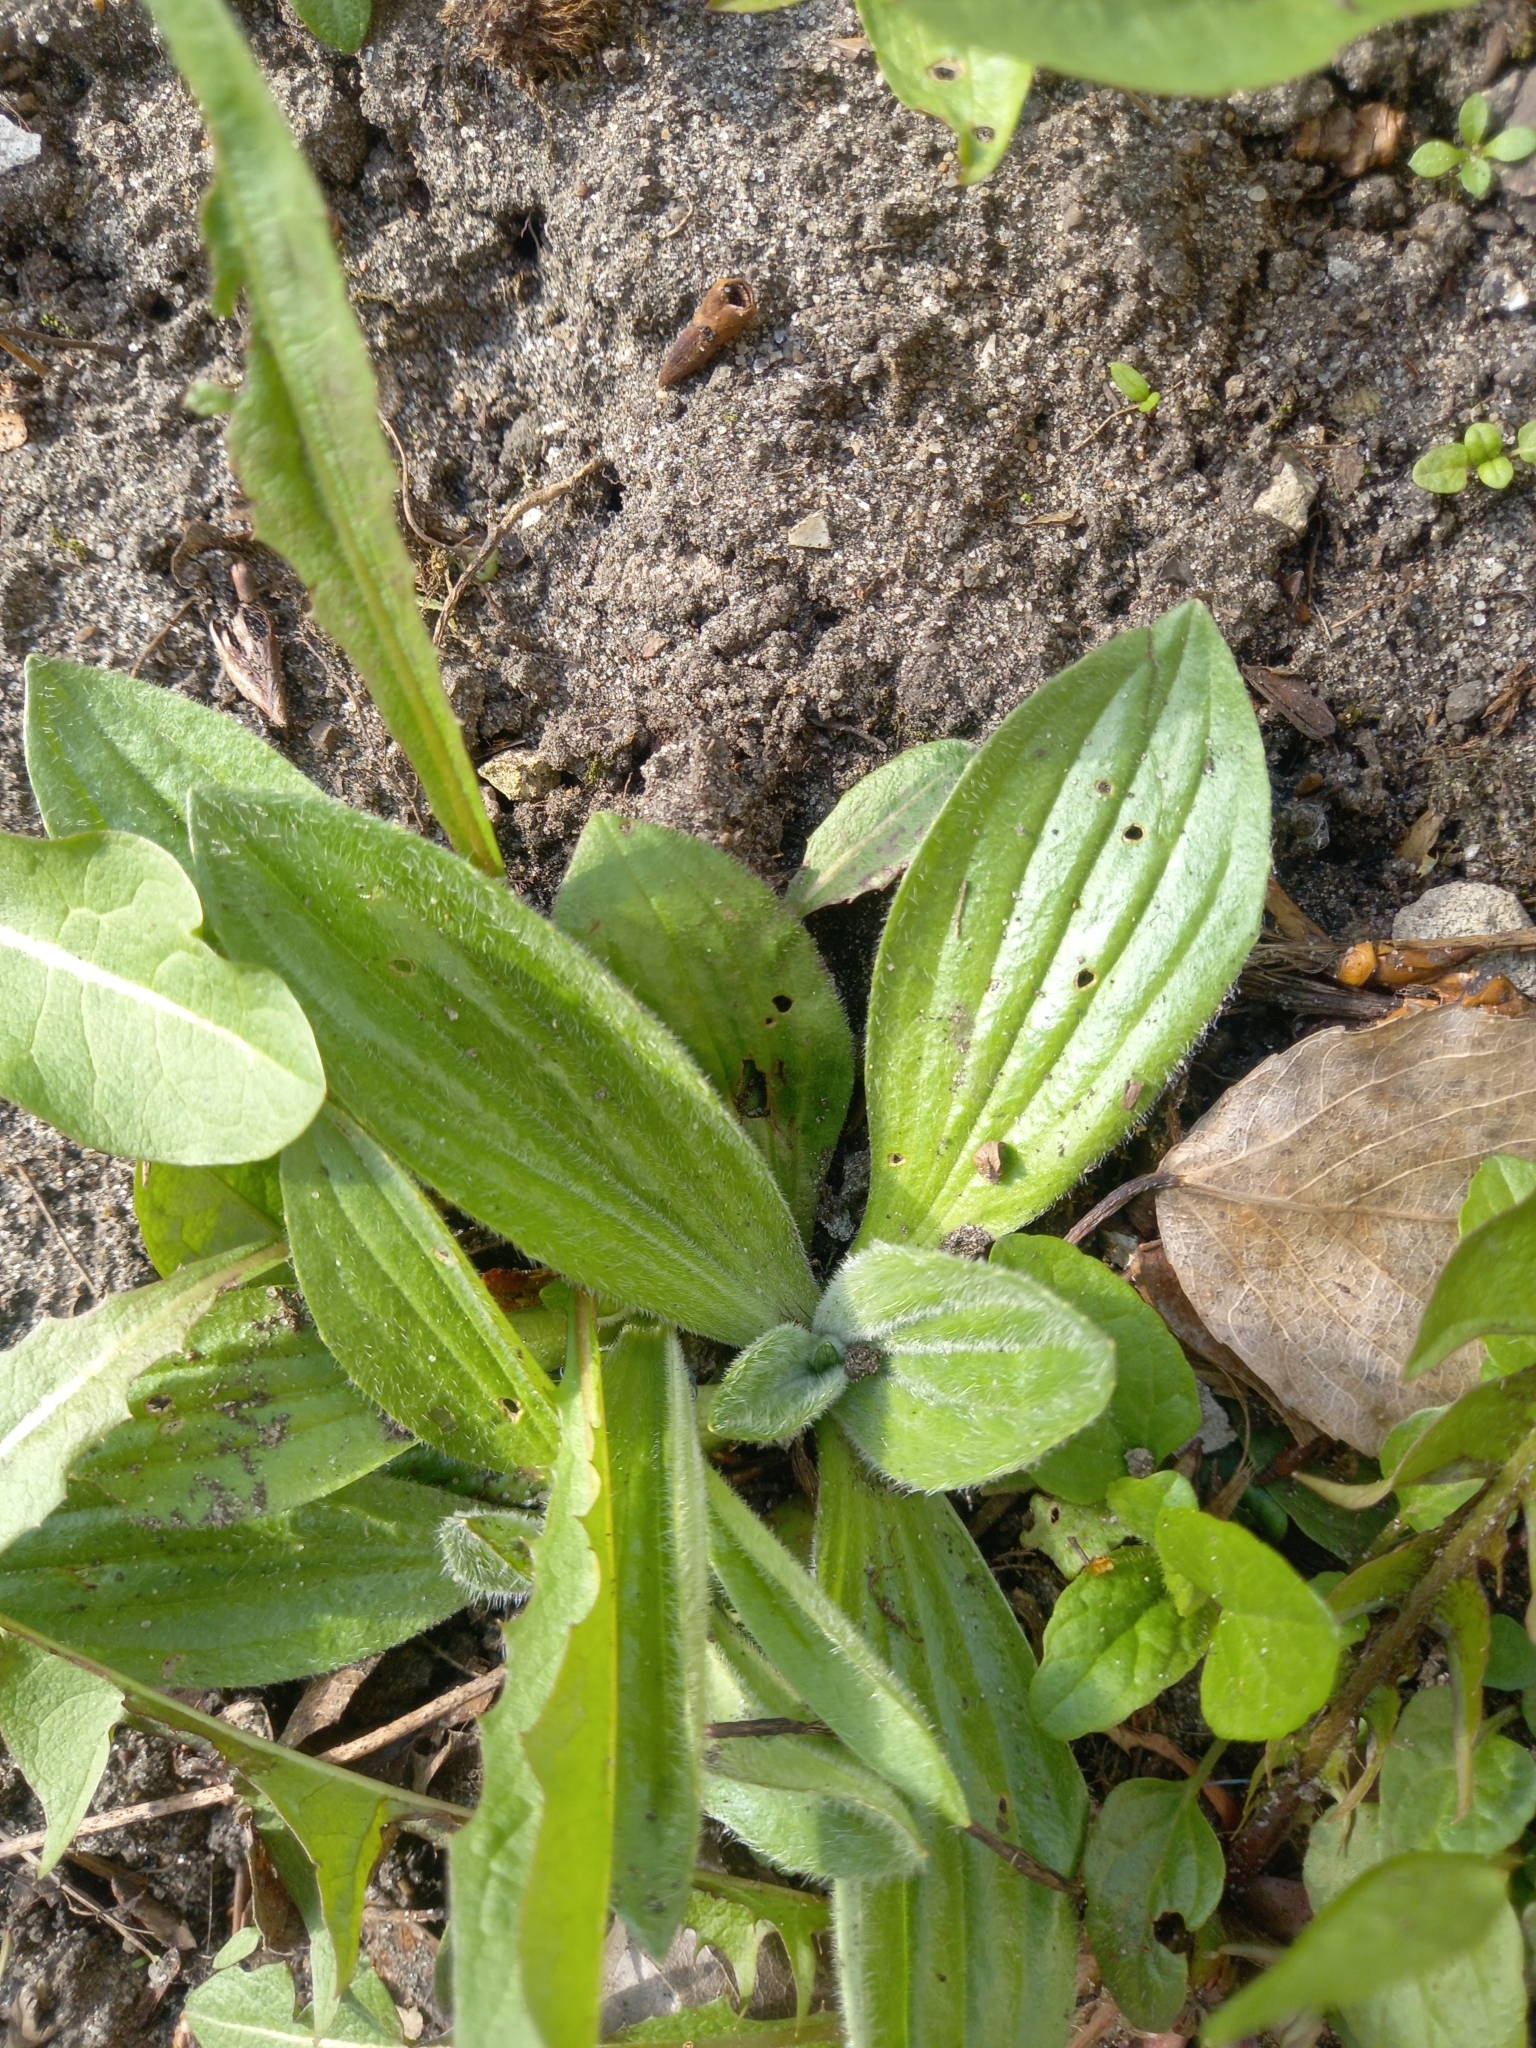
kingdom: Plantae
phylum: Tracheophyta
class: Magnoliopsida
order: Lamiales
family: Plantaginaceae
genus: Plantago
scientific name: Plantago media
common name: Hoary plantain
